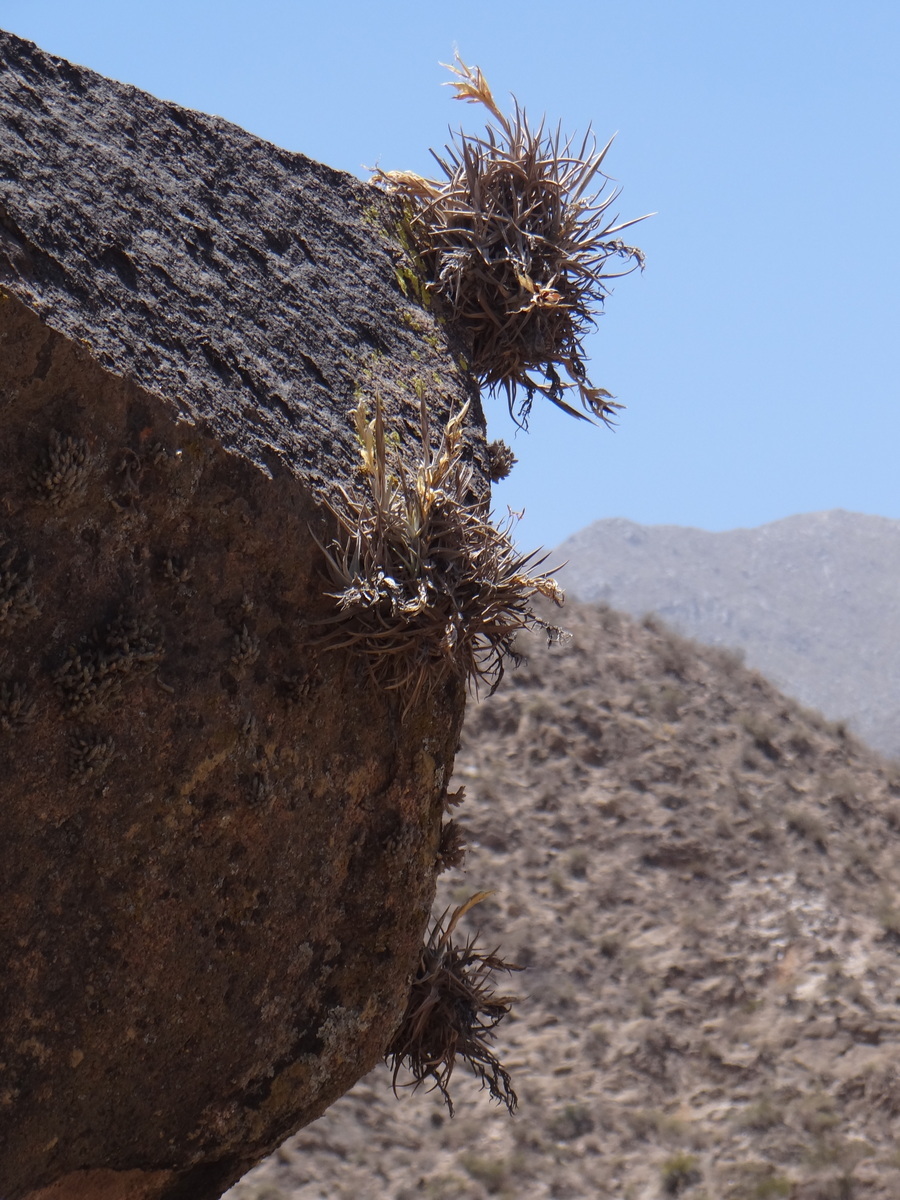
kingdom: Plantae
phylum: Tracheophyta
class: Liliopsida
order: Poales
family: Bromeliaceae
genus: Tillandsia
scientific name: Tillandsia xiphioides
